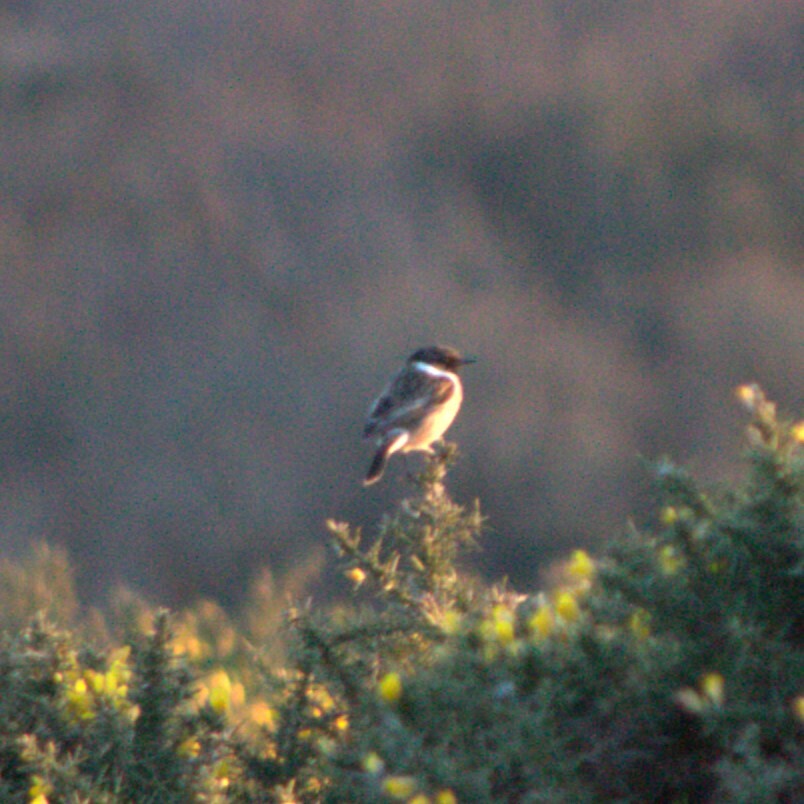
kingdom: Animalia
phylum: Chordata
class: Aves
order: Passeriformes
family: Muscicapidae
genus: Saxicola
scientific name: Saxicola rubicola
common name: European stonechat
